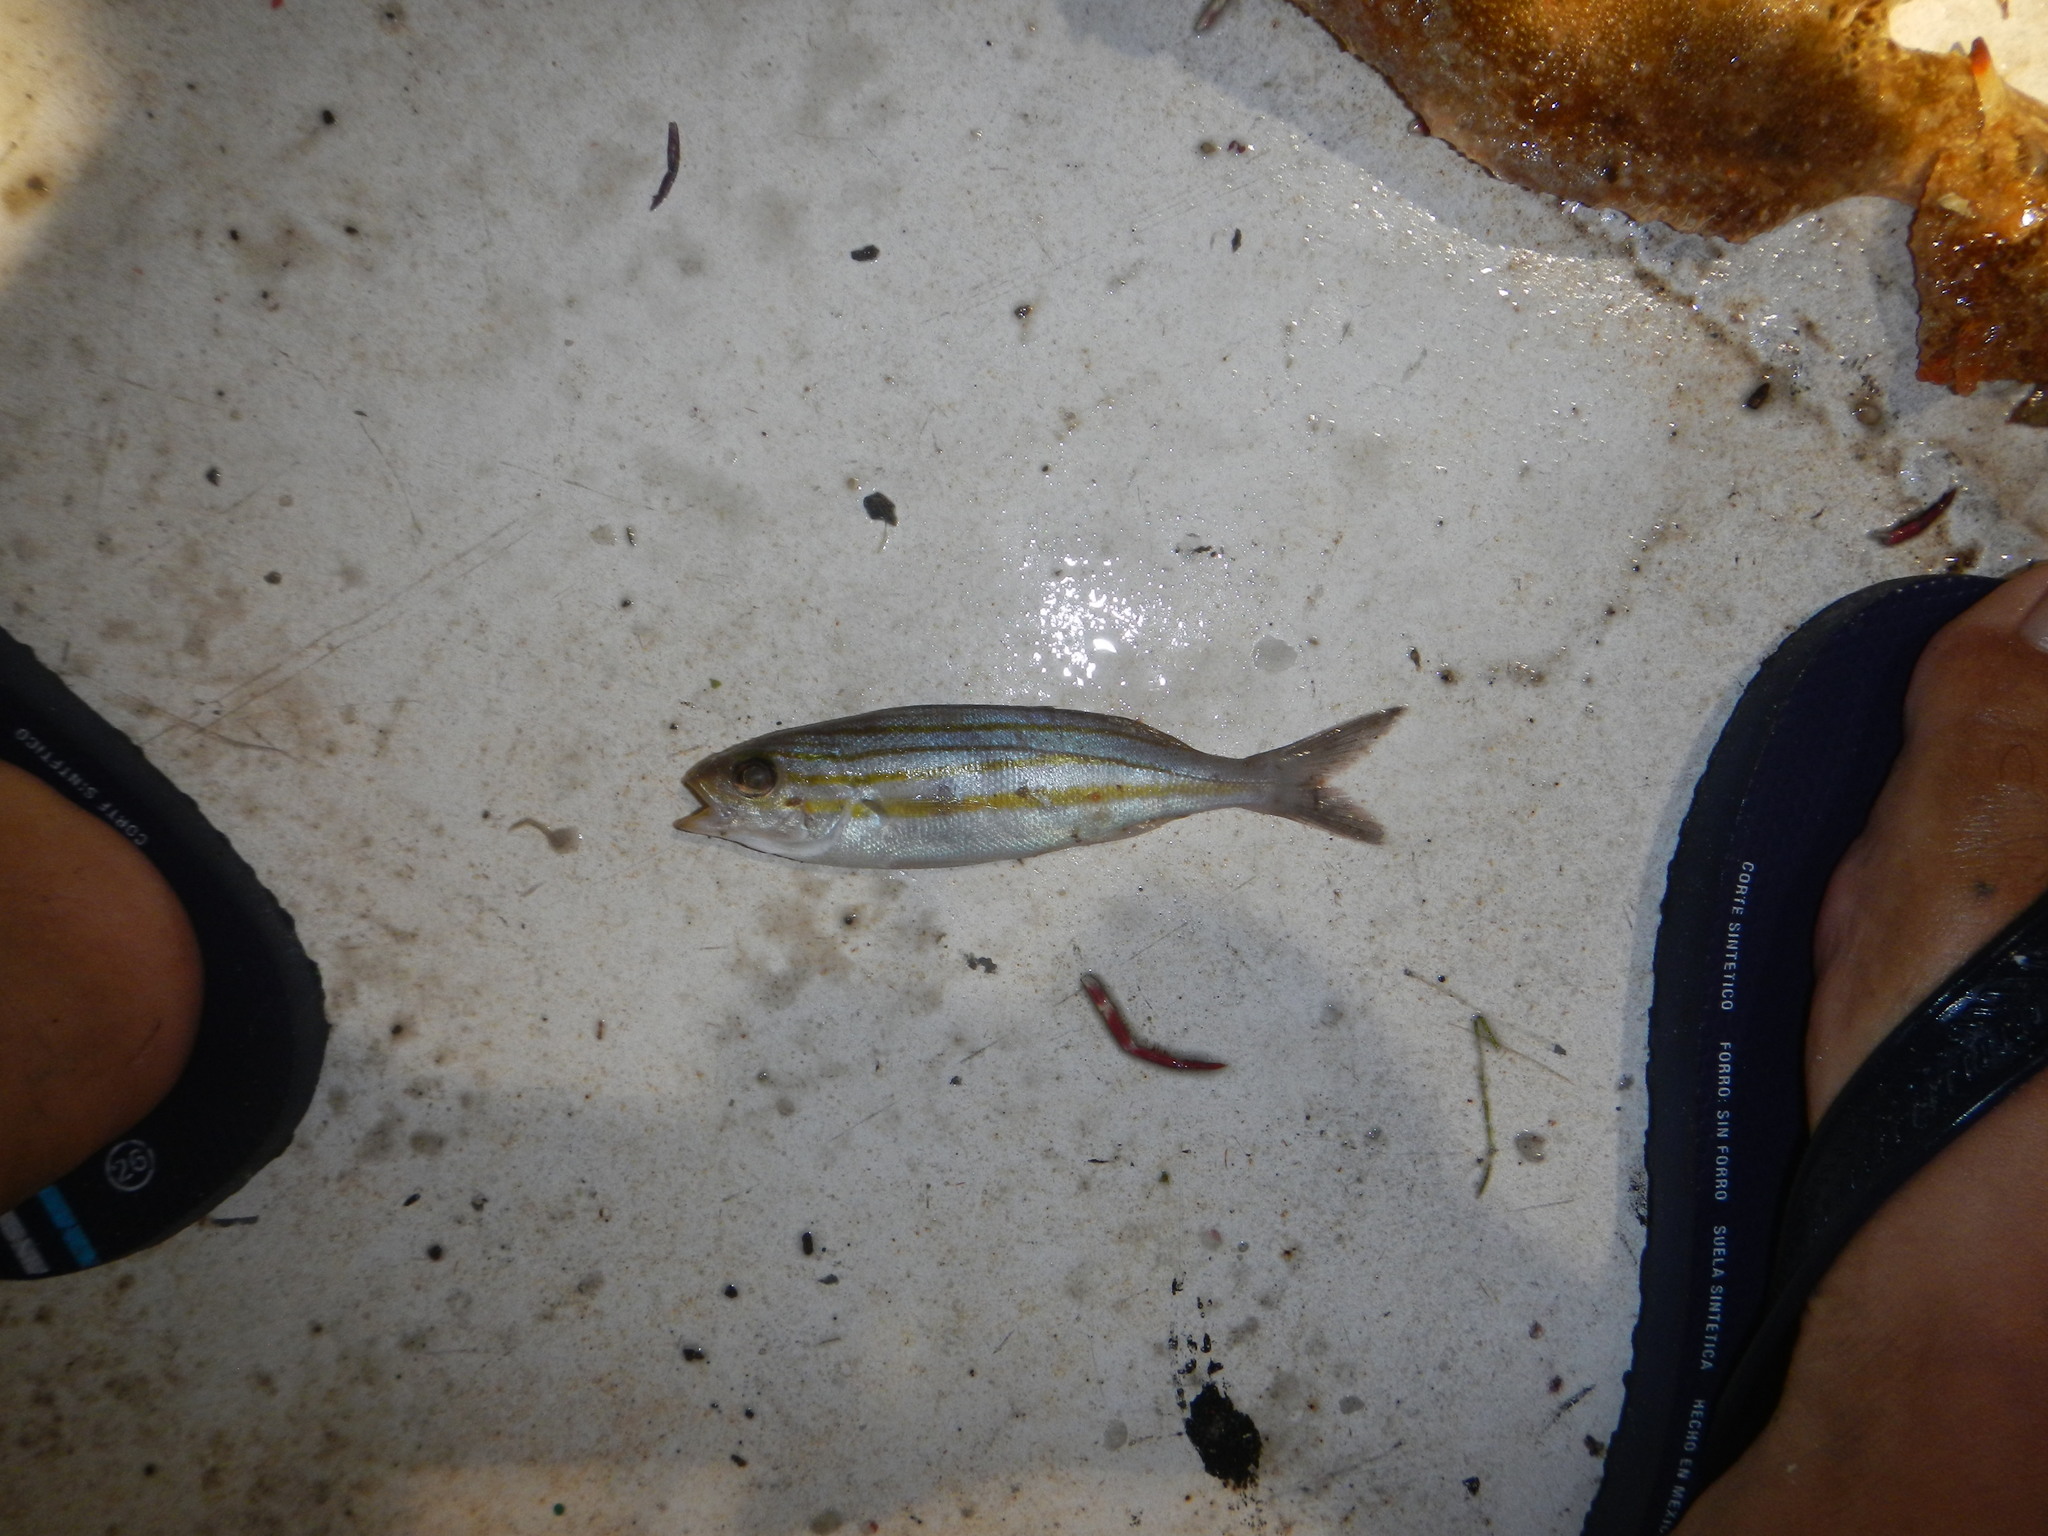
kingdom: Animalia
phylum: Chordata
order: Perciformes
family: Haemulidae
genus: Haemulon
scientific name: Haemulon striatum
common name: Striped grunt
